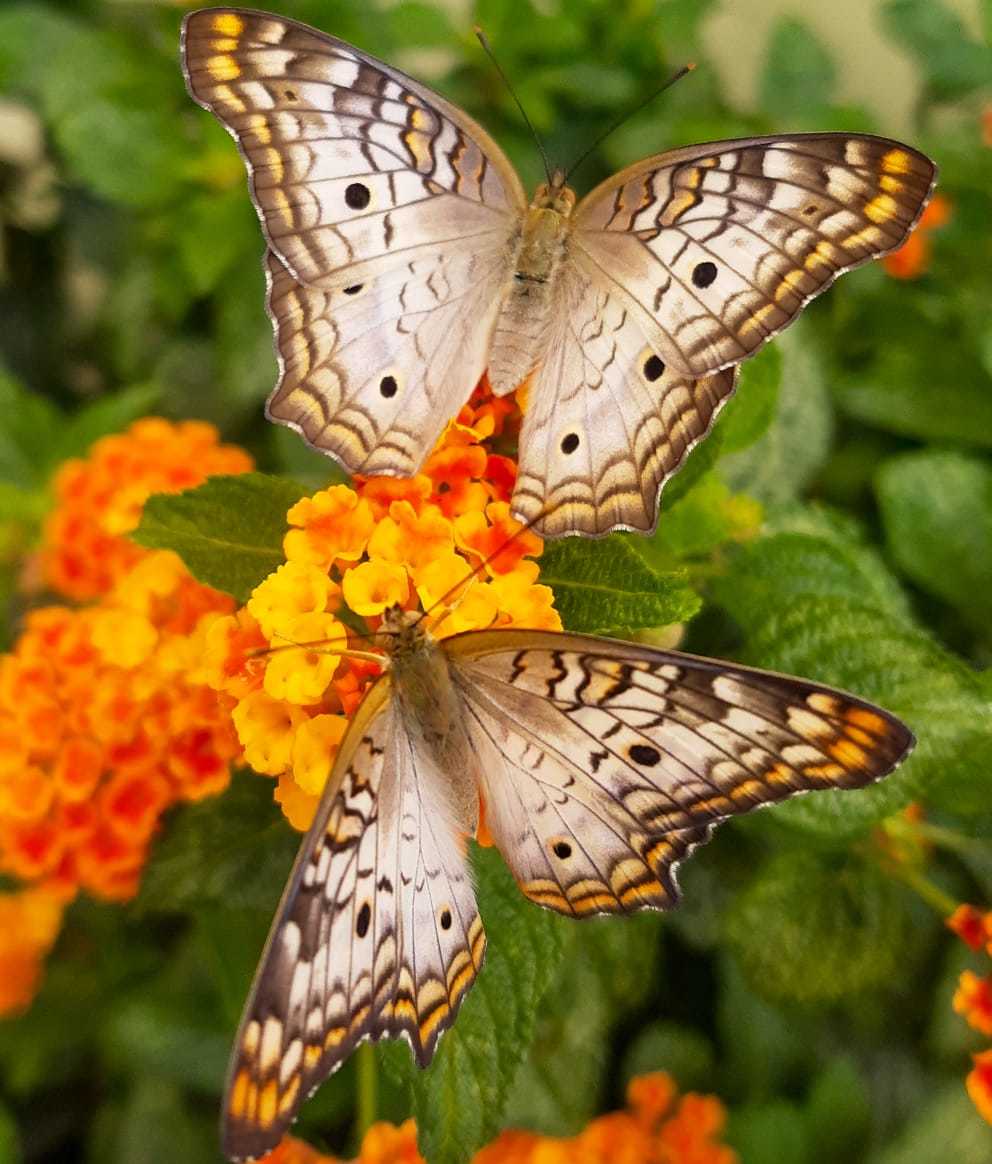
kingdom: Animalia
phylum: Arthropoda
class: Insecta
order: Lepidoptera
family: Nymphalidae
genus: Anartia
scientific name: Anartia jatrophae
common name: White peacock
